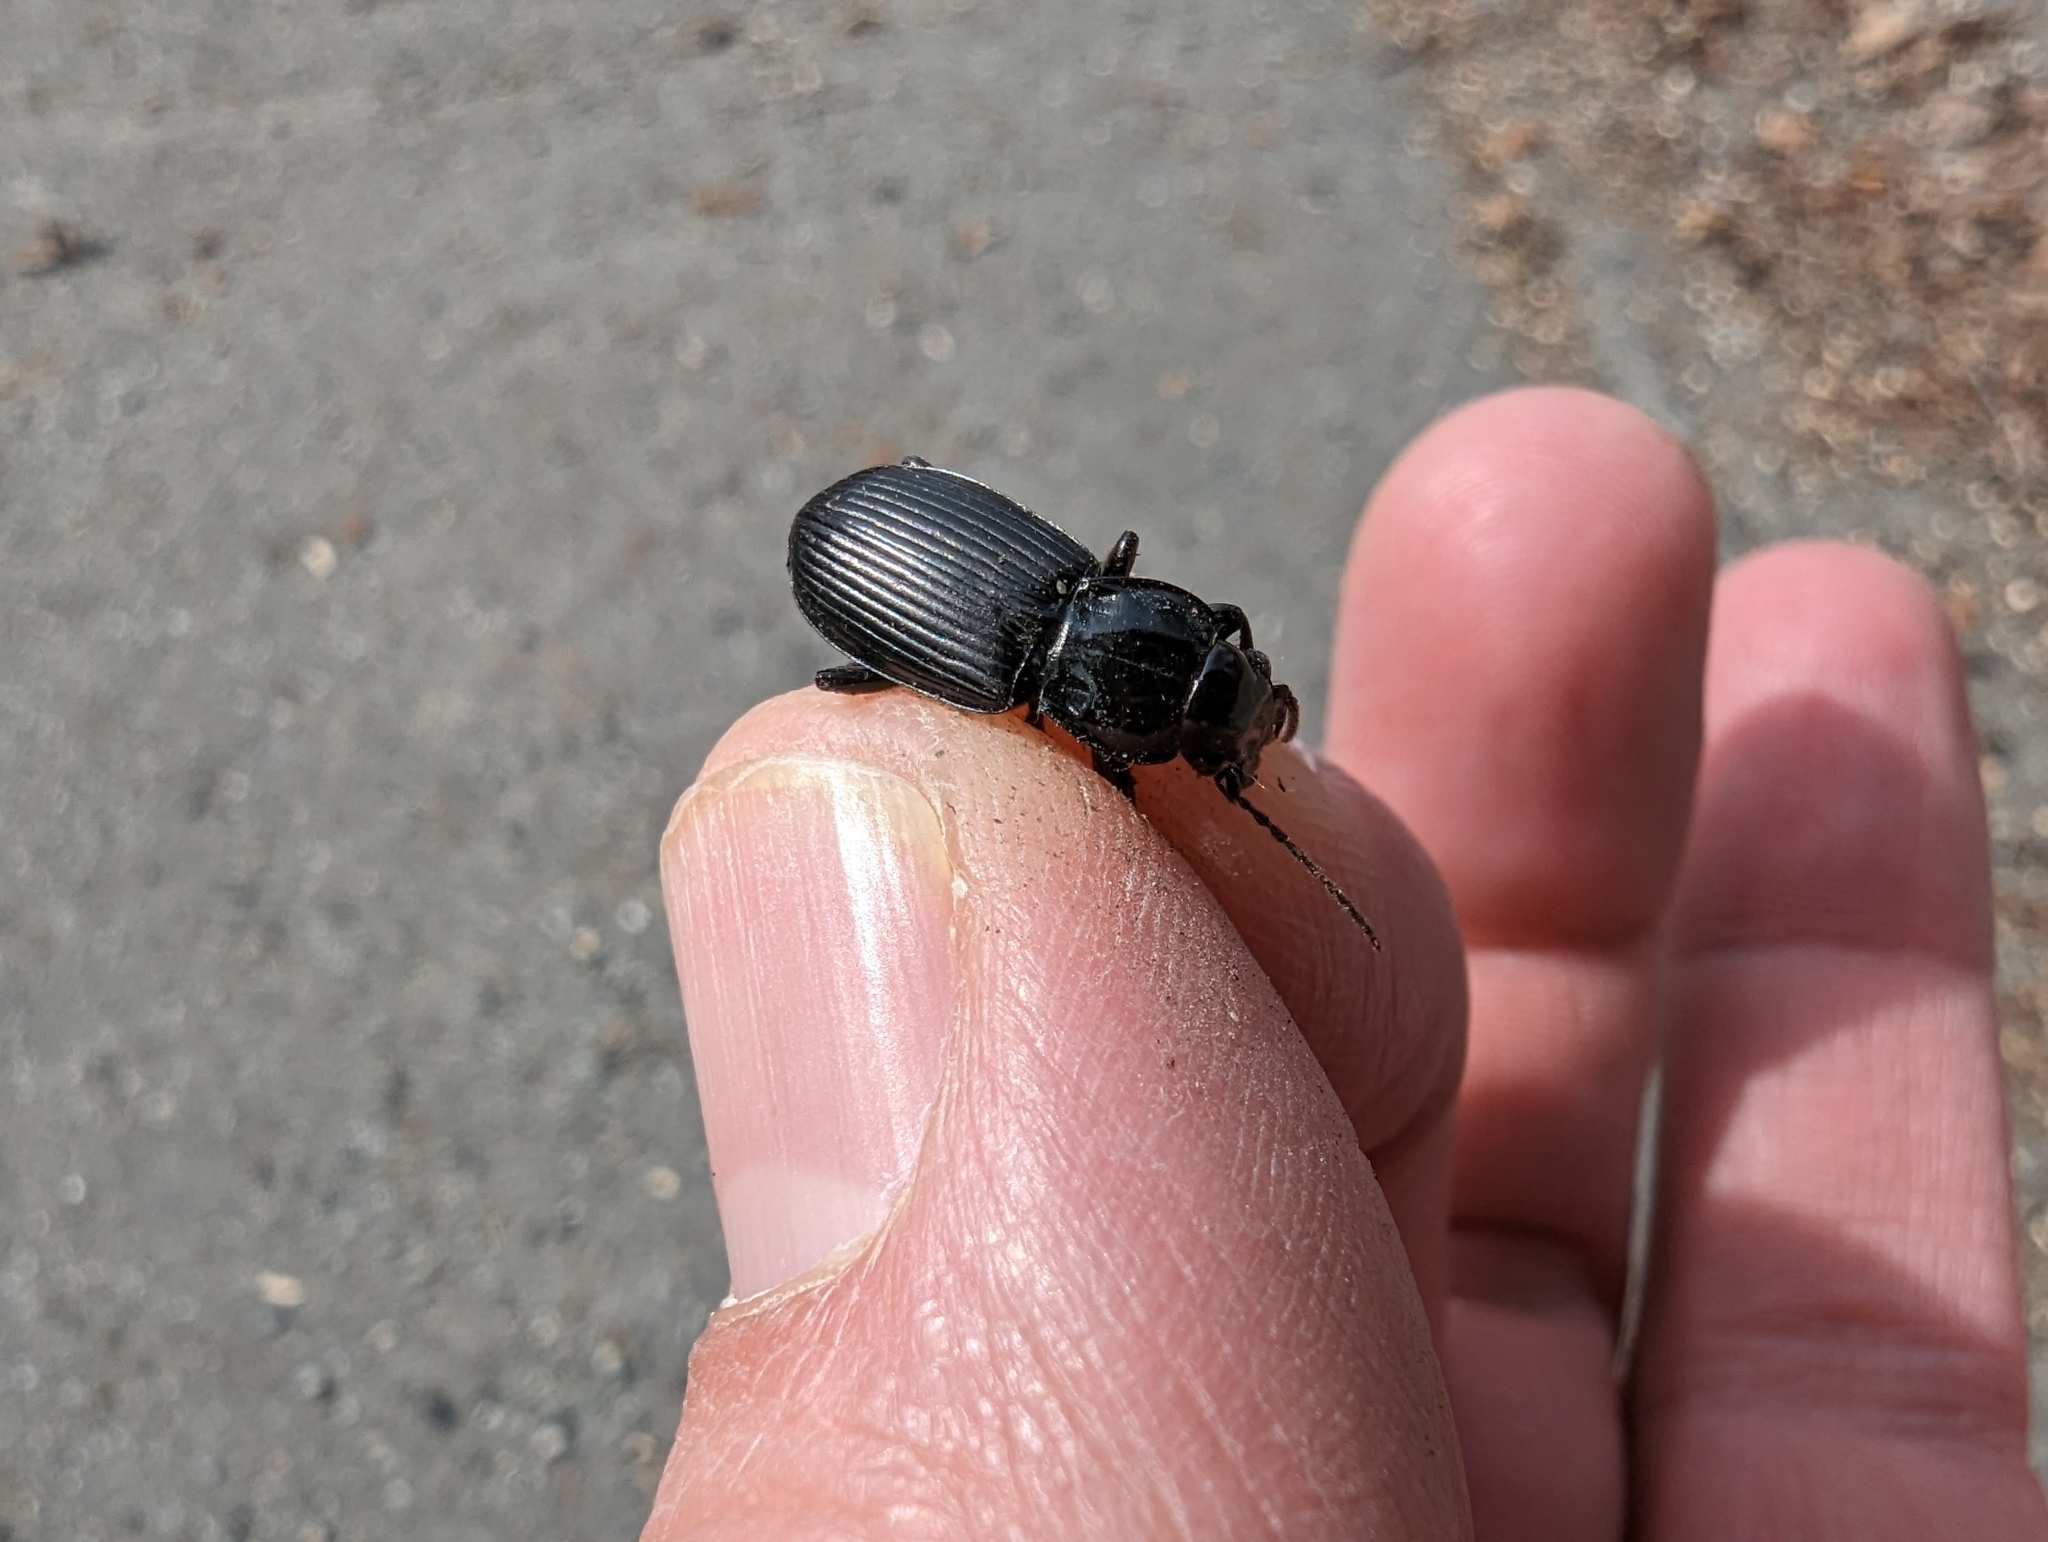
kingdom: Animalia
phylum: Arthropoda
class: Insecta
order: Coleoptera
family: Carabidae
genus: Pterostichus
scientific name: Pterostichus melanarius
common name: European dark harp ground beetle
